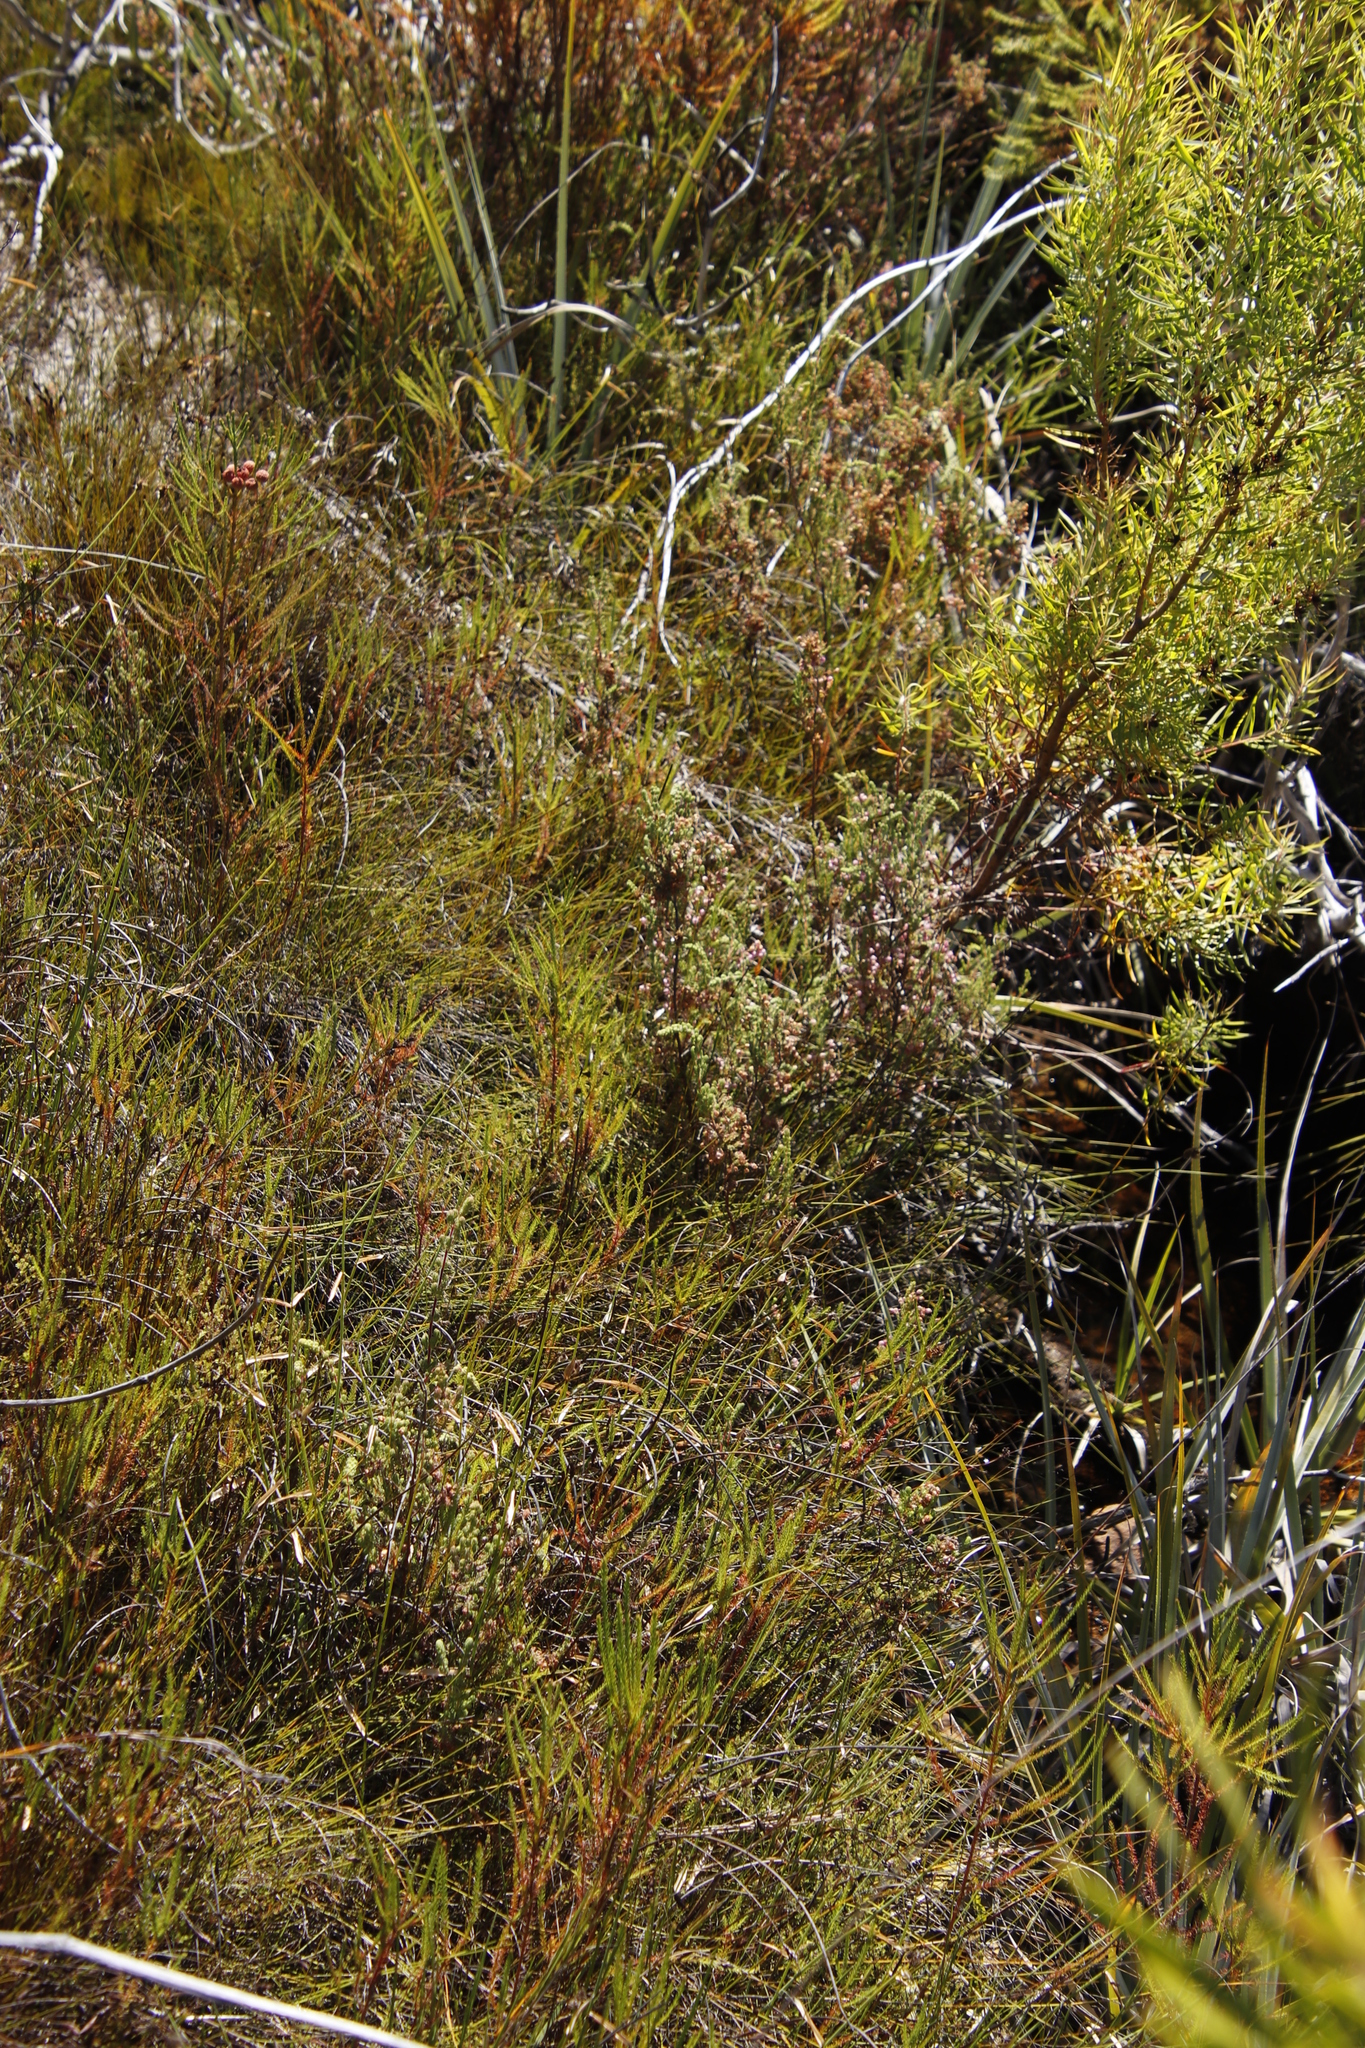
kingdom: Plantae
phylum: Tracheophyta
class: Magnoliopsida
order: Ericales
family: Ericaceae
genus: Erica
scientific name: Erica bergiana
